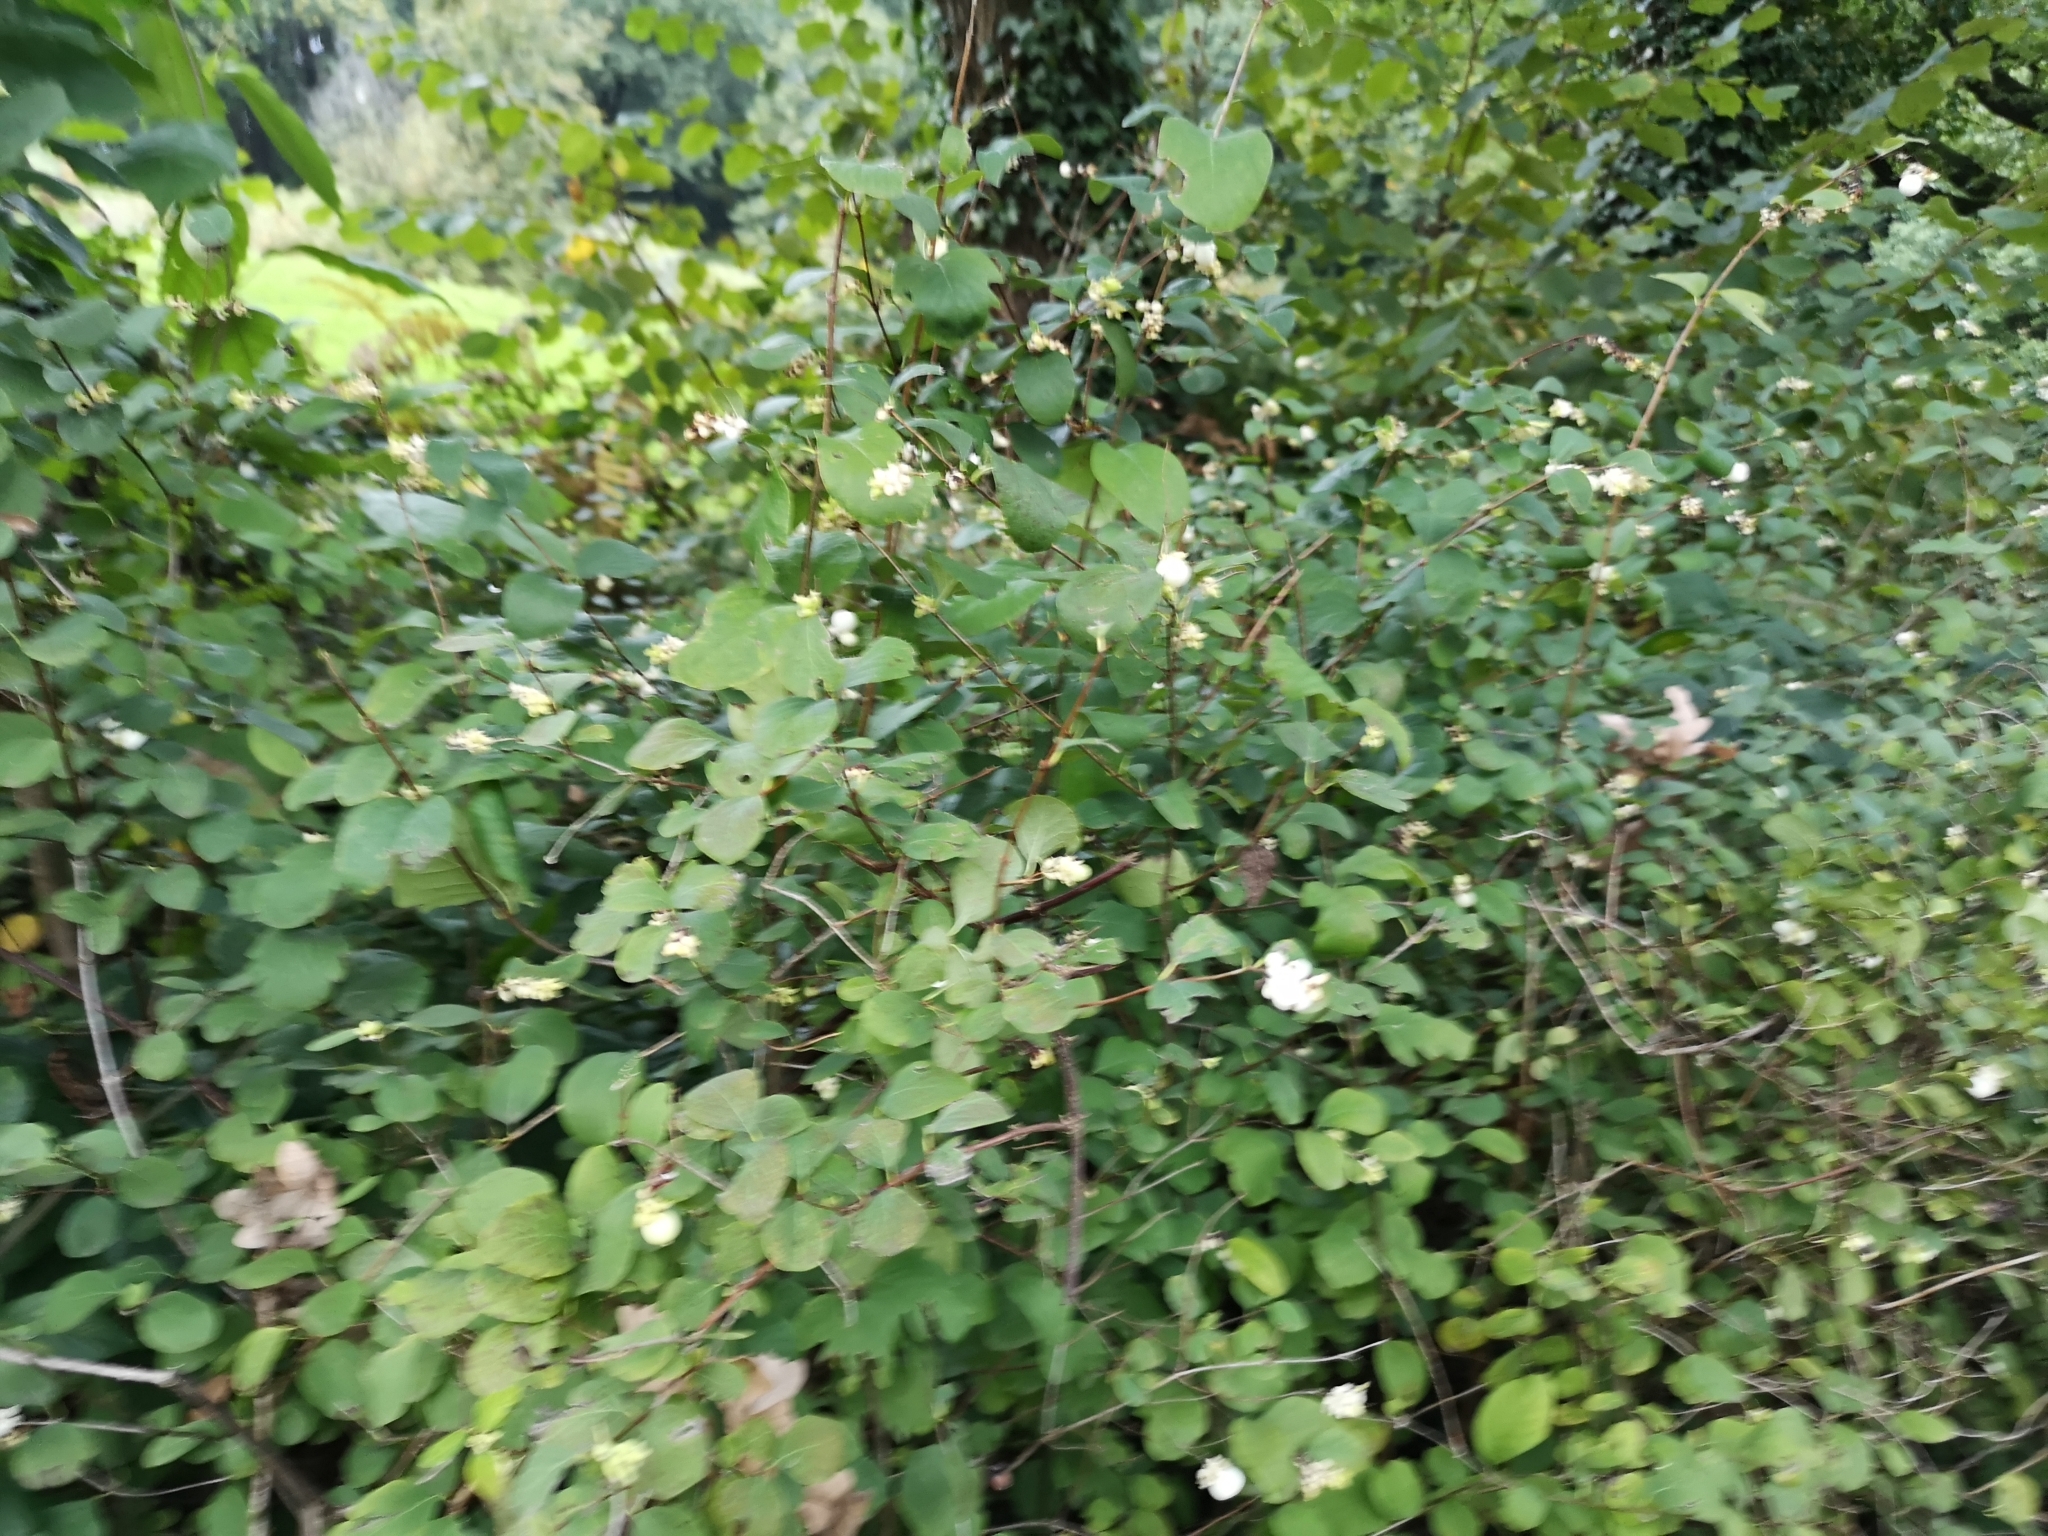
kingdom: Plantae
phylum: Tracheophyta
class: Magnoliopsida
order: Dipsacales
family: Caprifoliaceae
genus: Symphoricarpos
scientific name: Symphoricarpos albus
